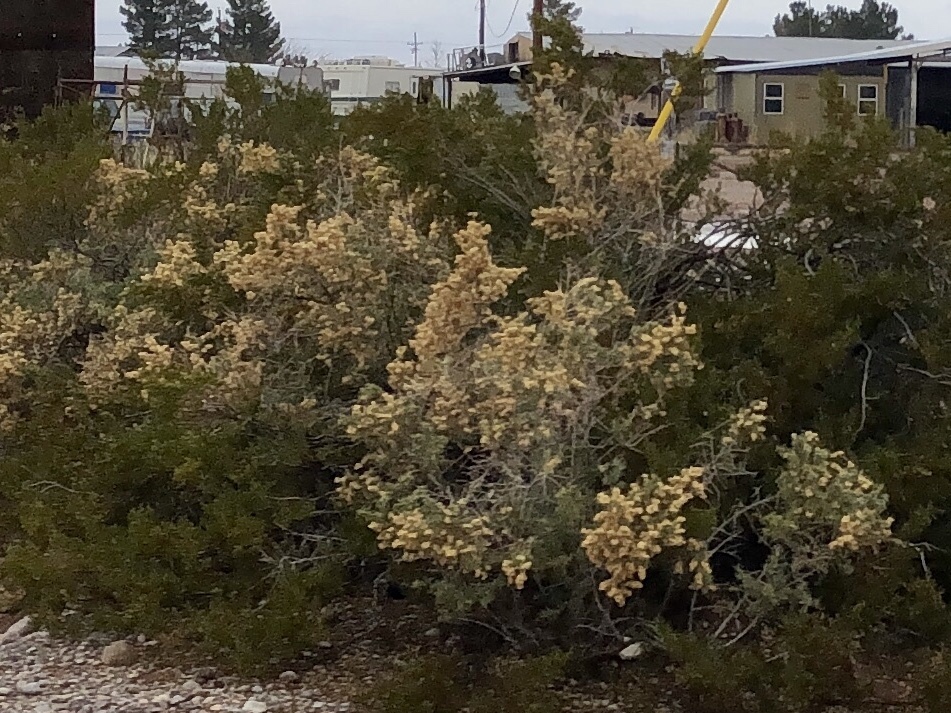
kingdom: Plantae
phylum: Tracheophyta
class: Magnoliopsida
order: Caryophyllales
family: Amaranthaceae
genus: Atriplex
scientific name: Atriplex canescens
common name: Four-wing saltbush
